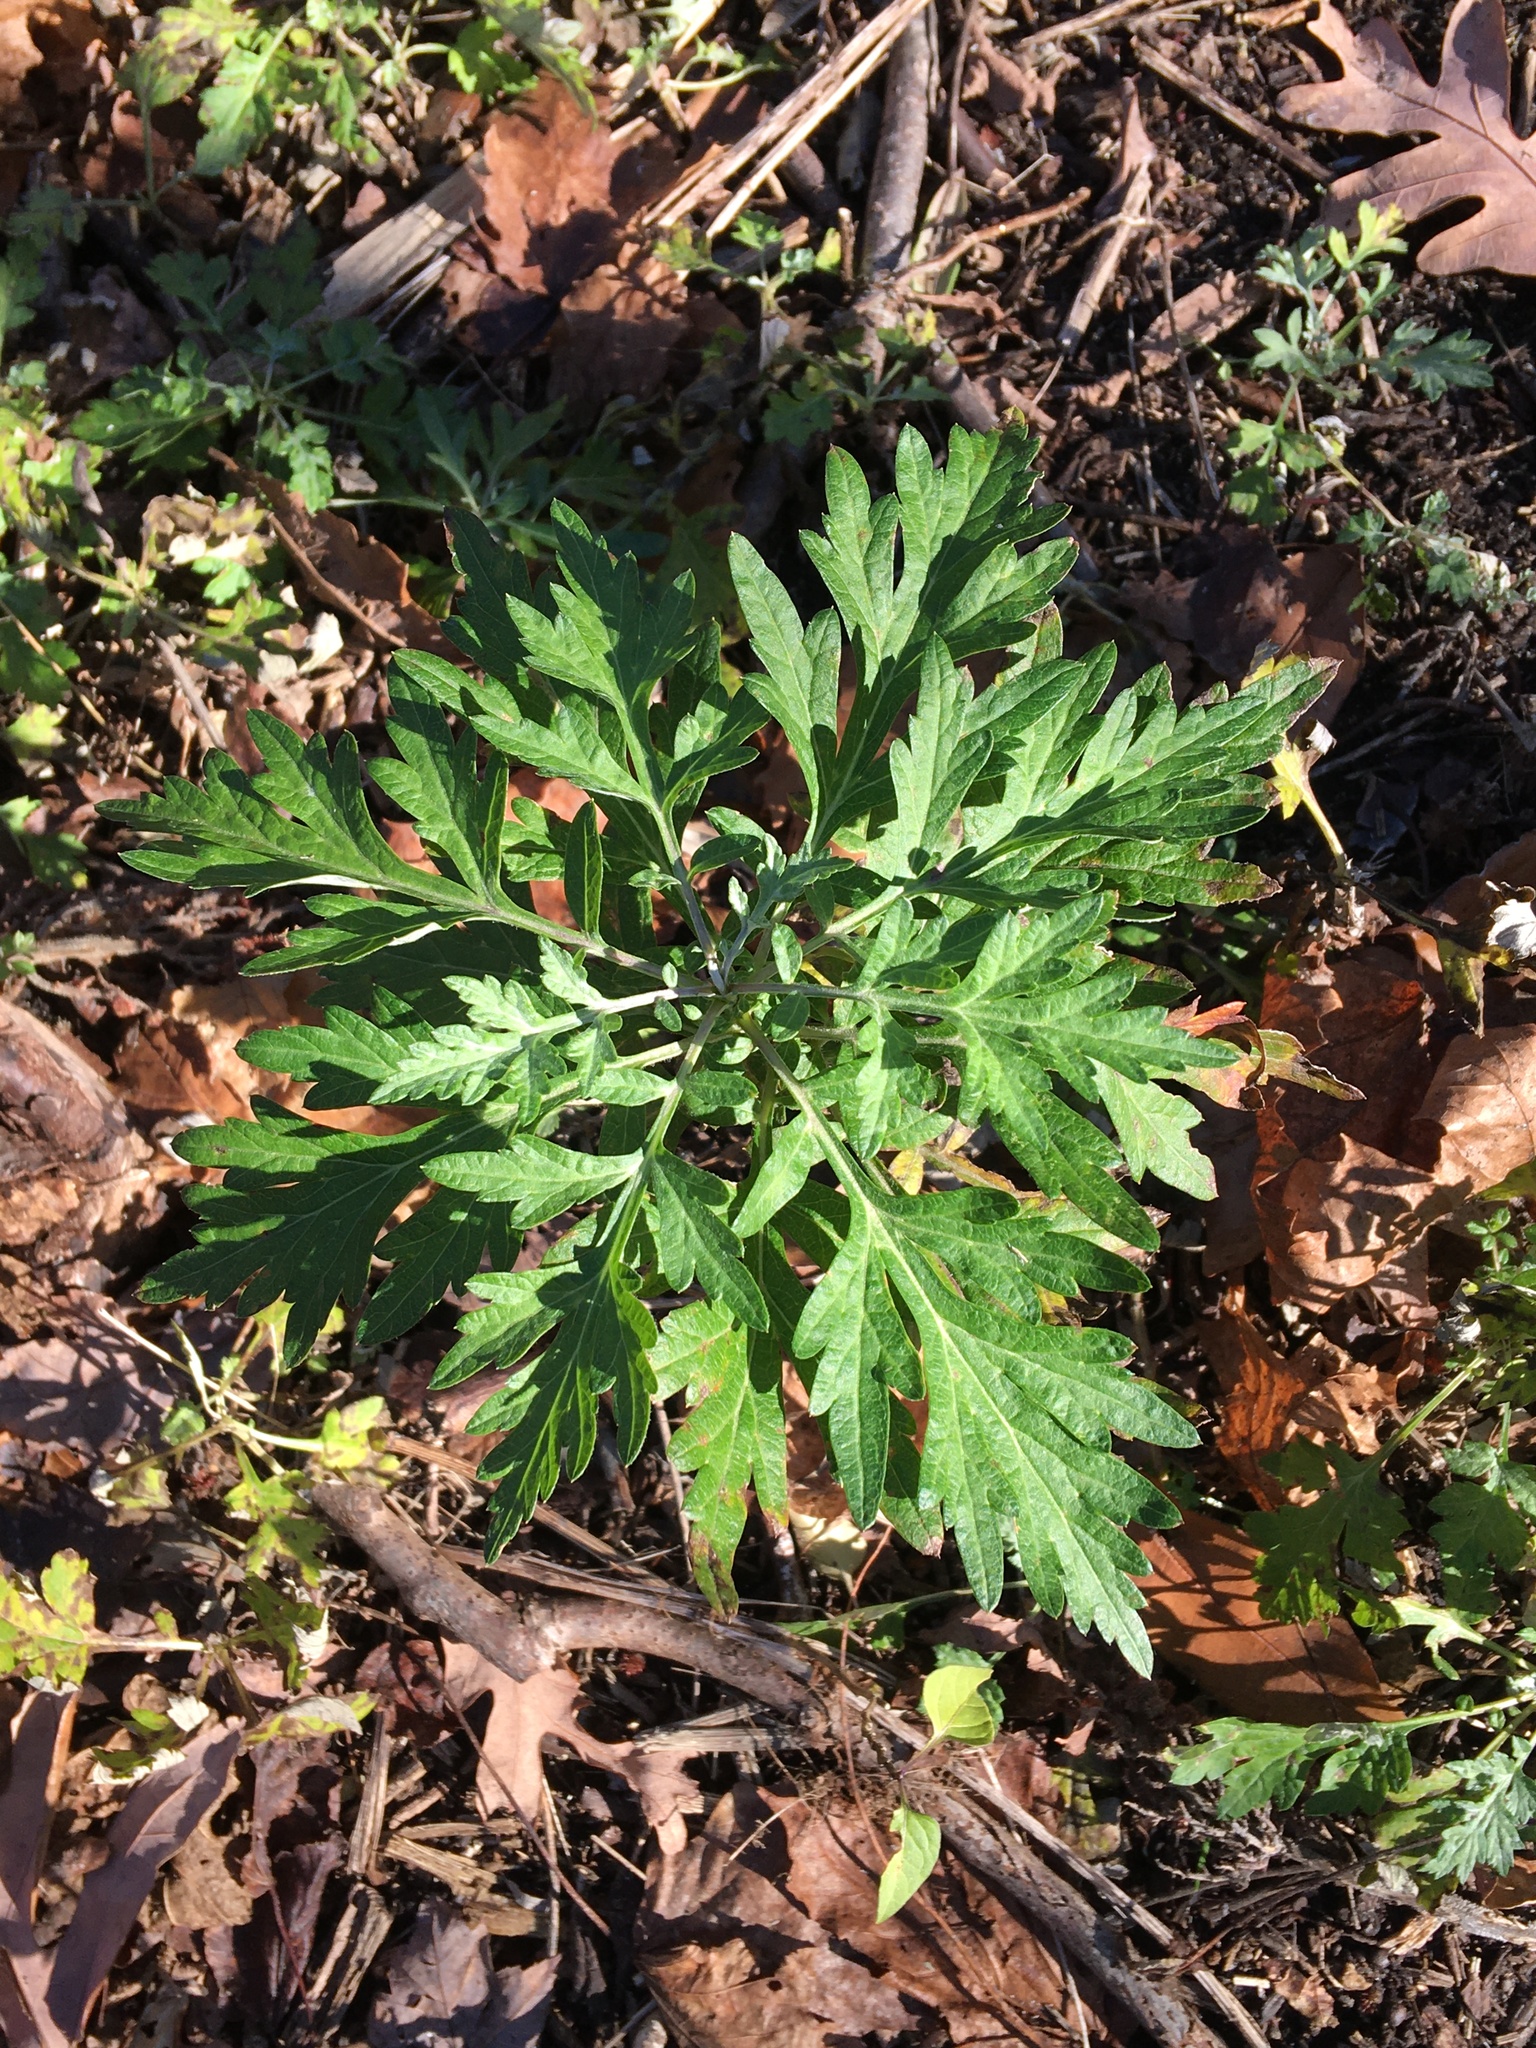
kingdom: Plantae
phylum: Tracheophyta
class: Magnoliopsida
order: Asterales
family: Asteraceae
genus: Artemisia
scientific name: Artemisia vulgaris
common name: Mugwort
